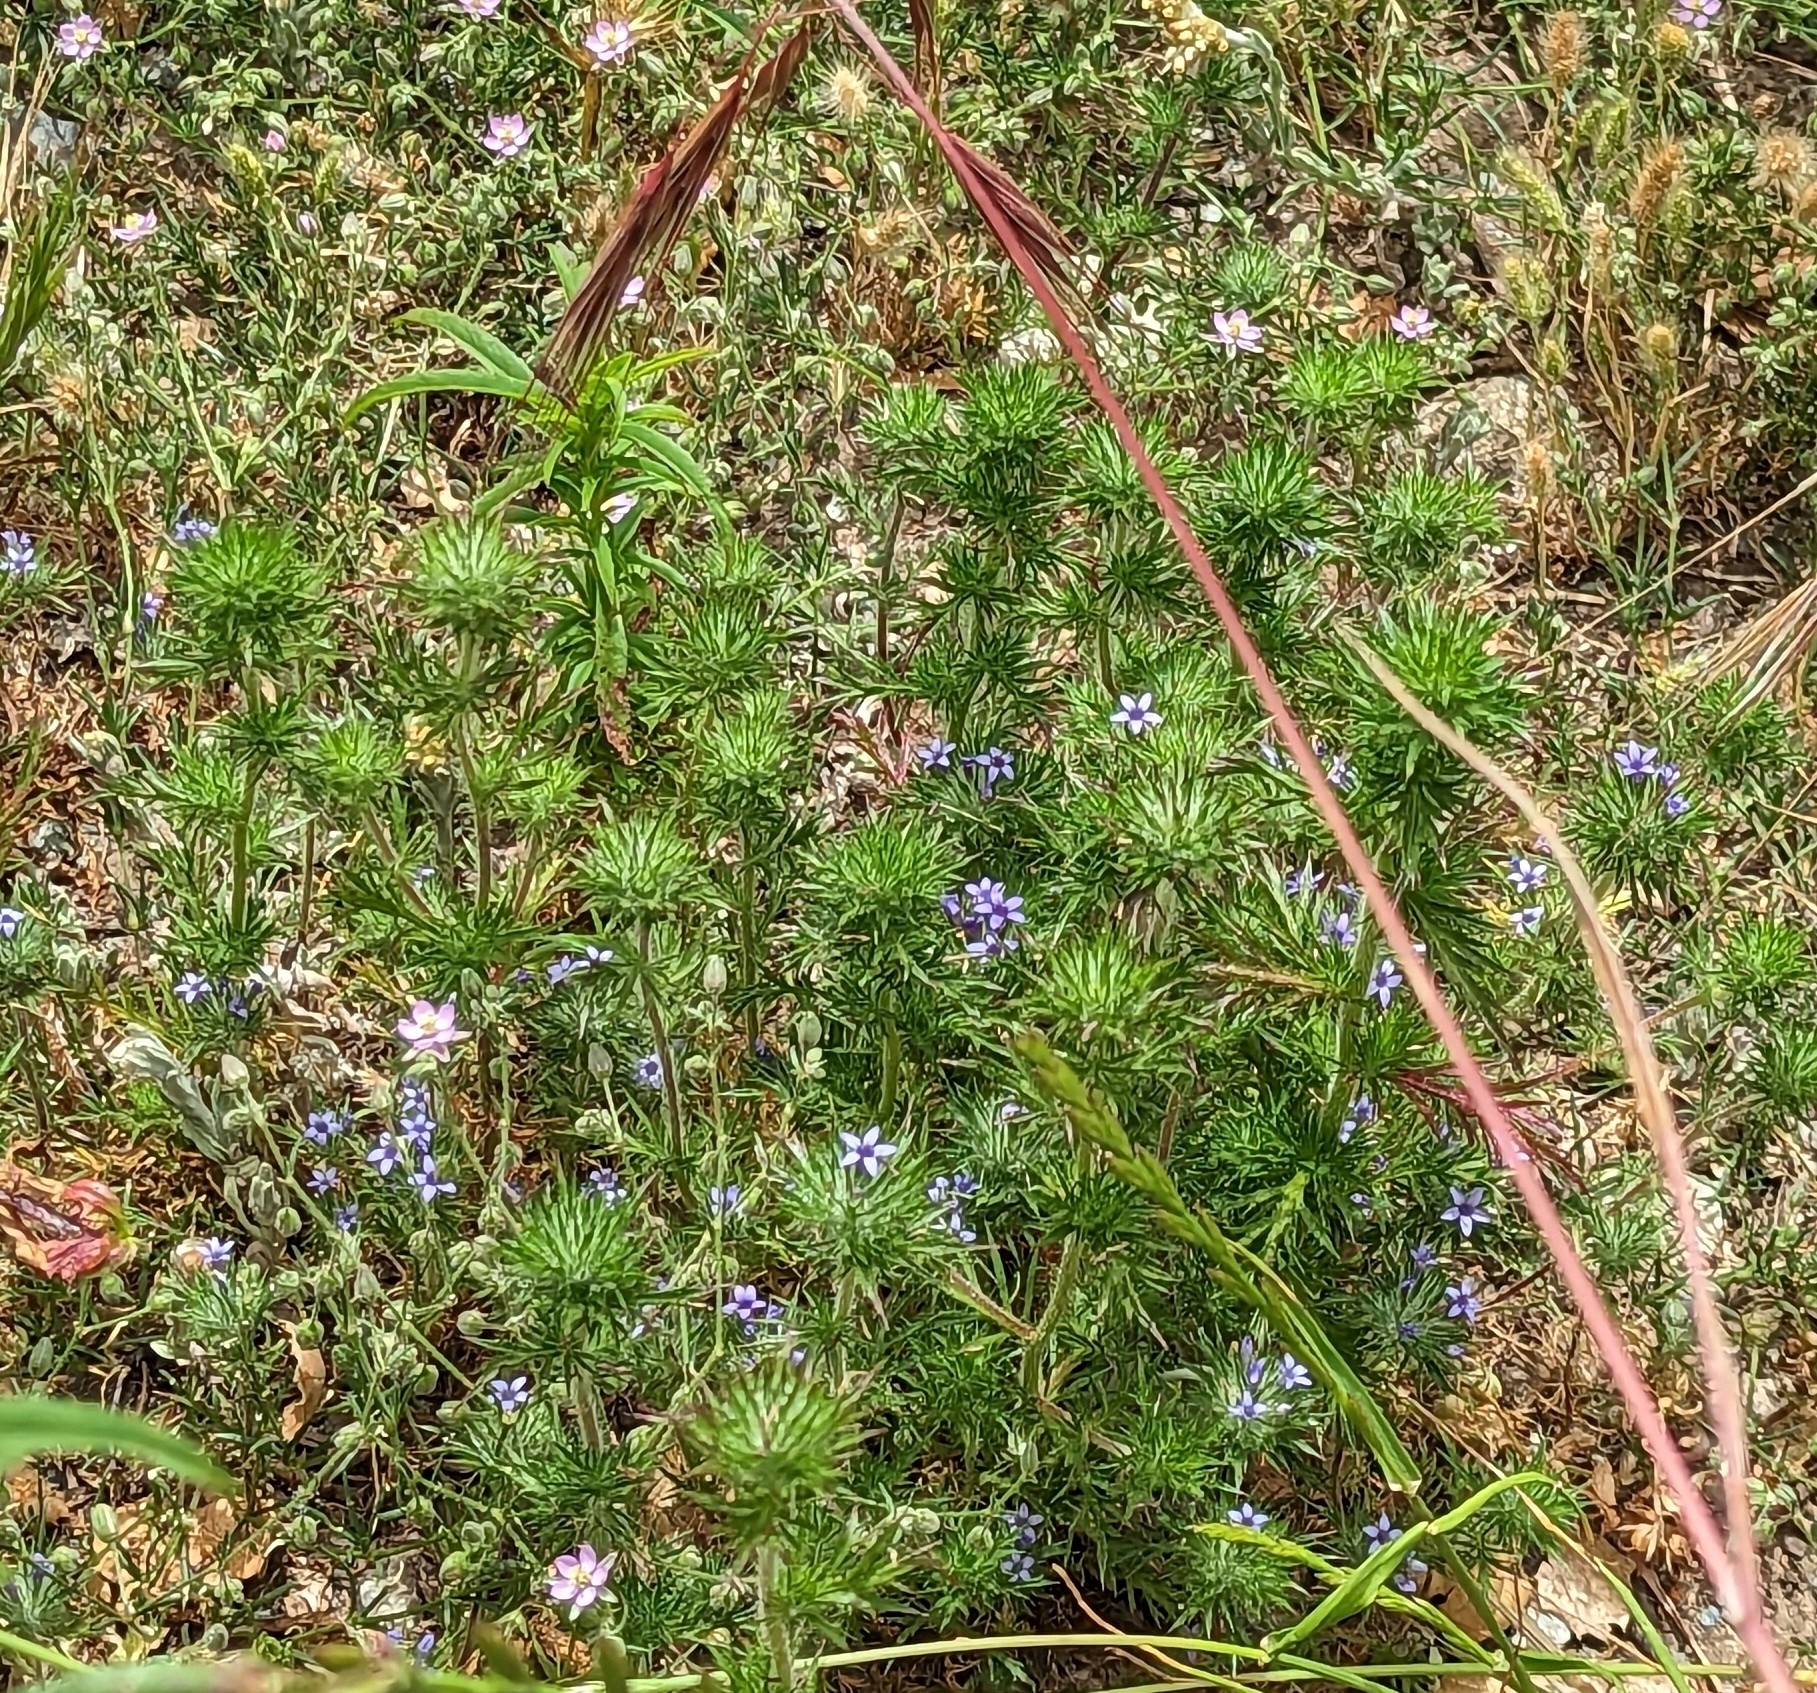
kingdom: Plantae
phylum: Tracheophyta
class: Magnoliopsida
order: Ericales
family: Polemoniaceae
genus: Navarretia
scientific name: Navarretia squarrosa
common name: Skunkweed
